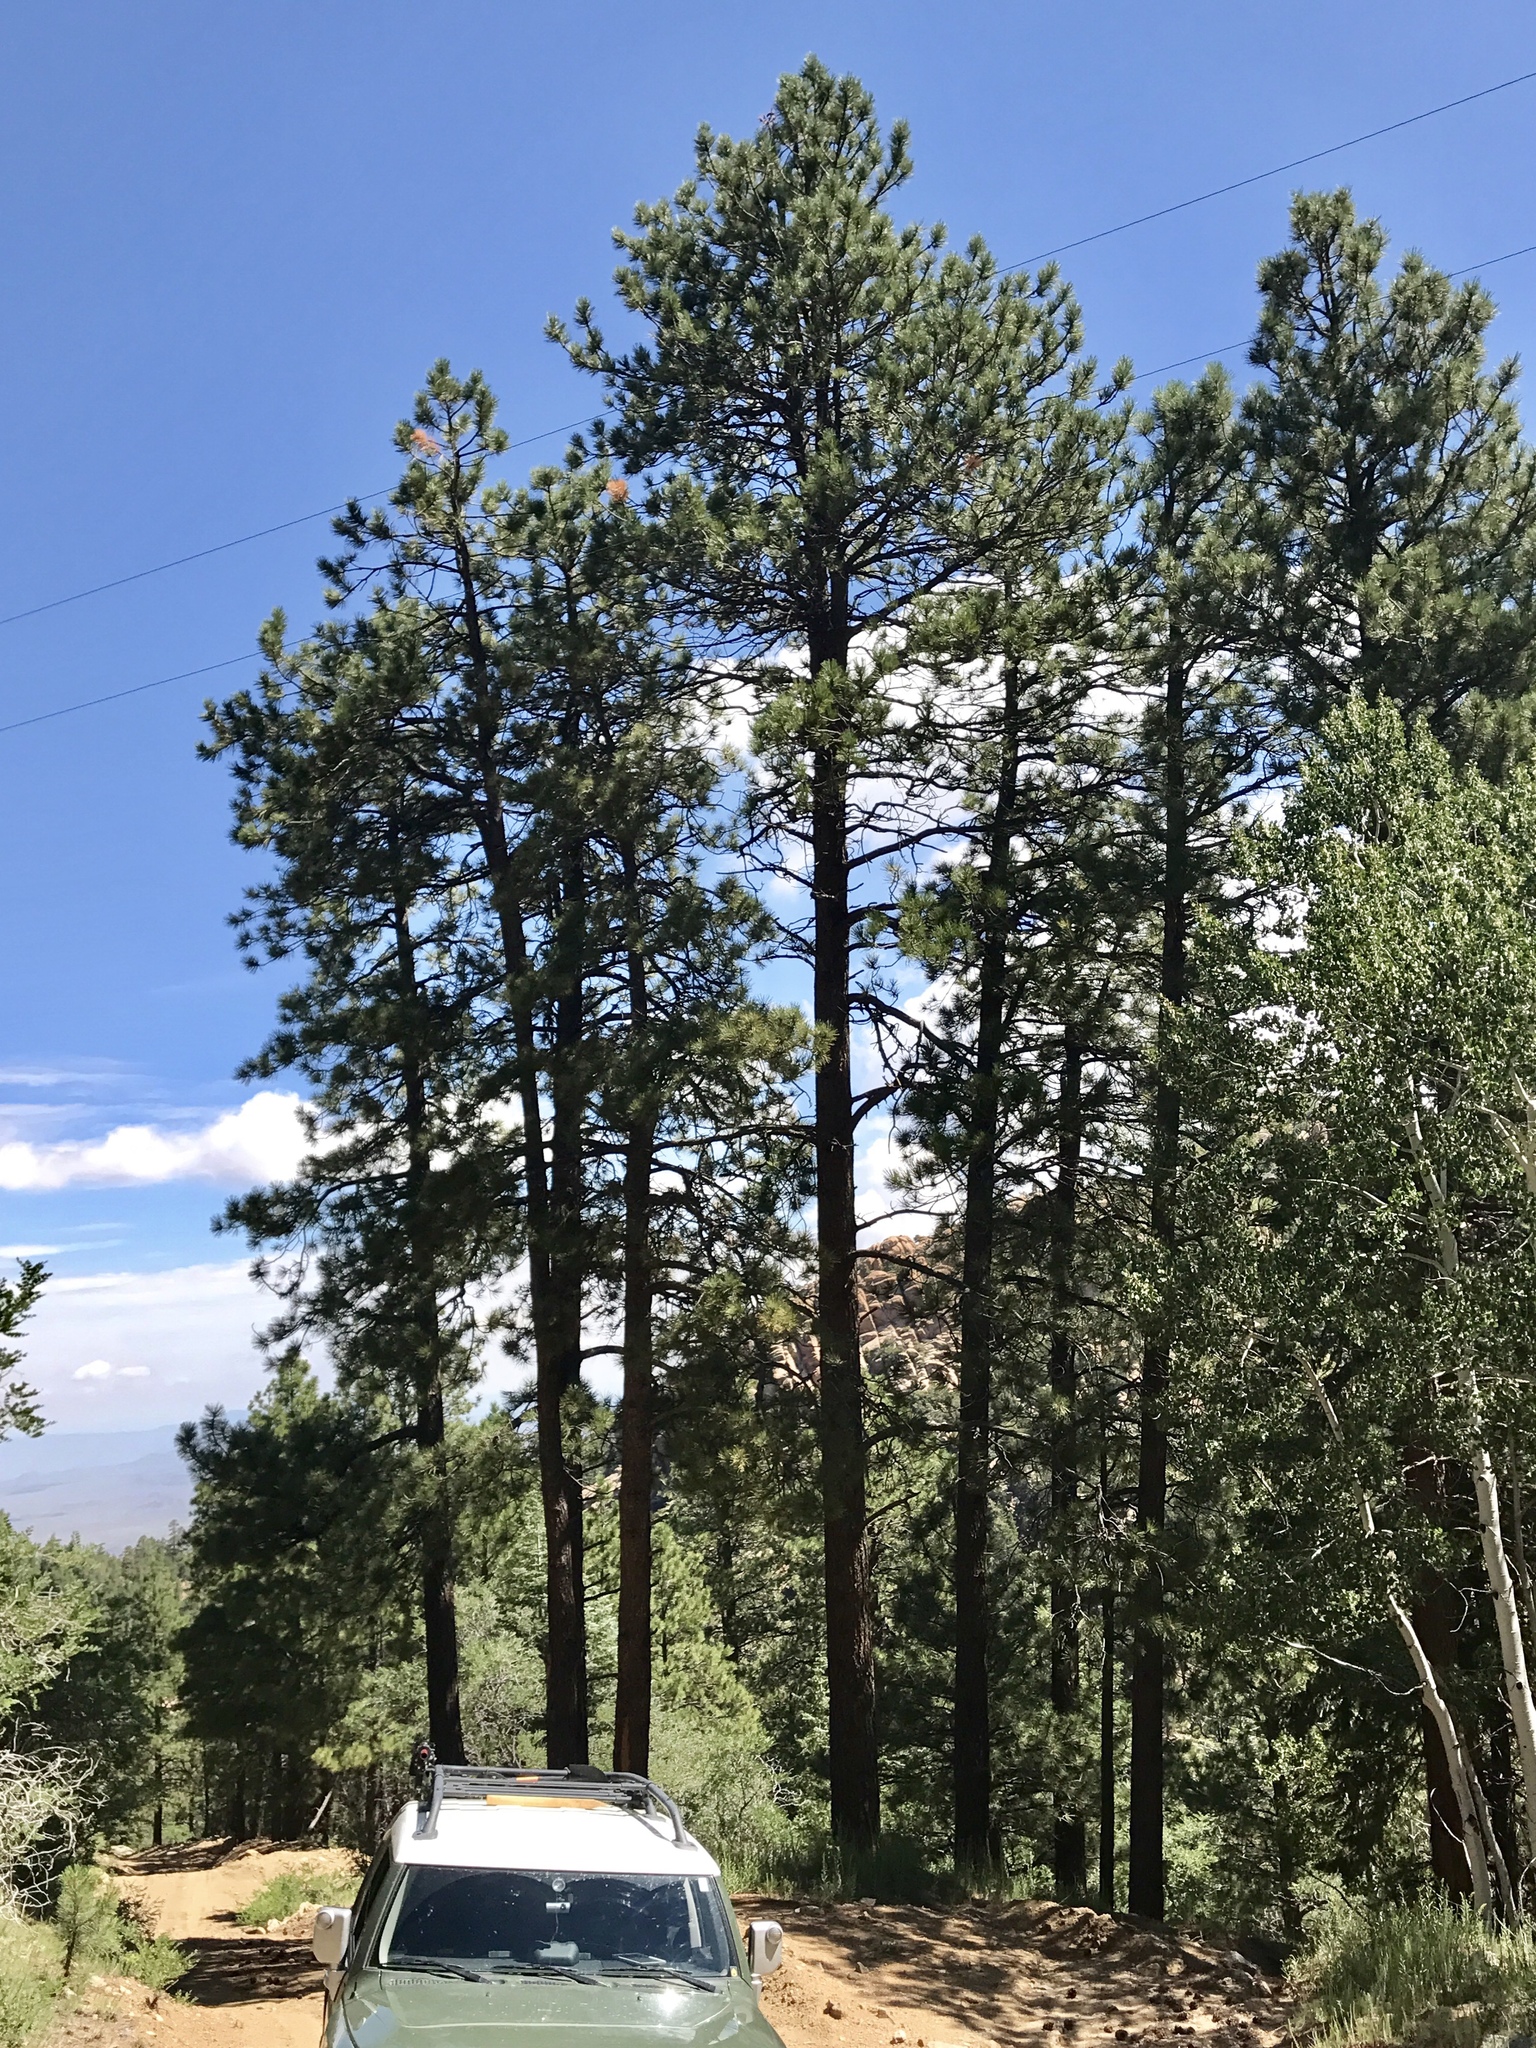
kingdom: Plantae
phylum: Tracheophyta
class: Pinopsida
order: Pinales
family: Pinaceae
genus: Pinus
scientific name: Pinus ponderosa
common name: Western yellow-pine
